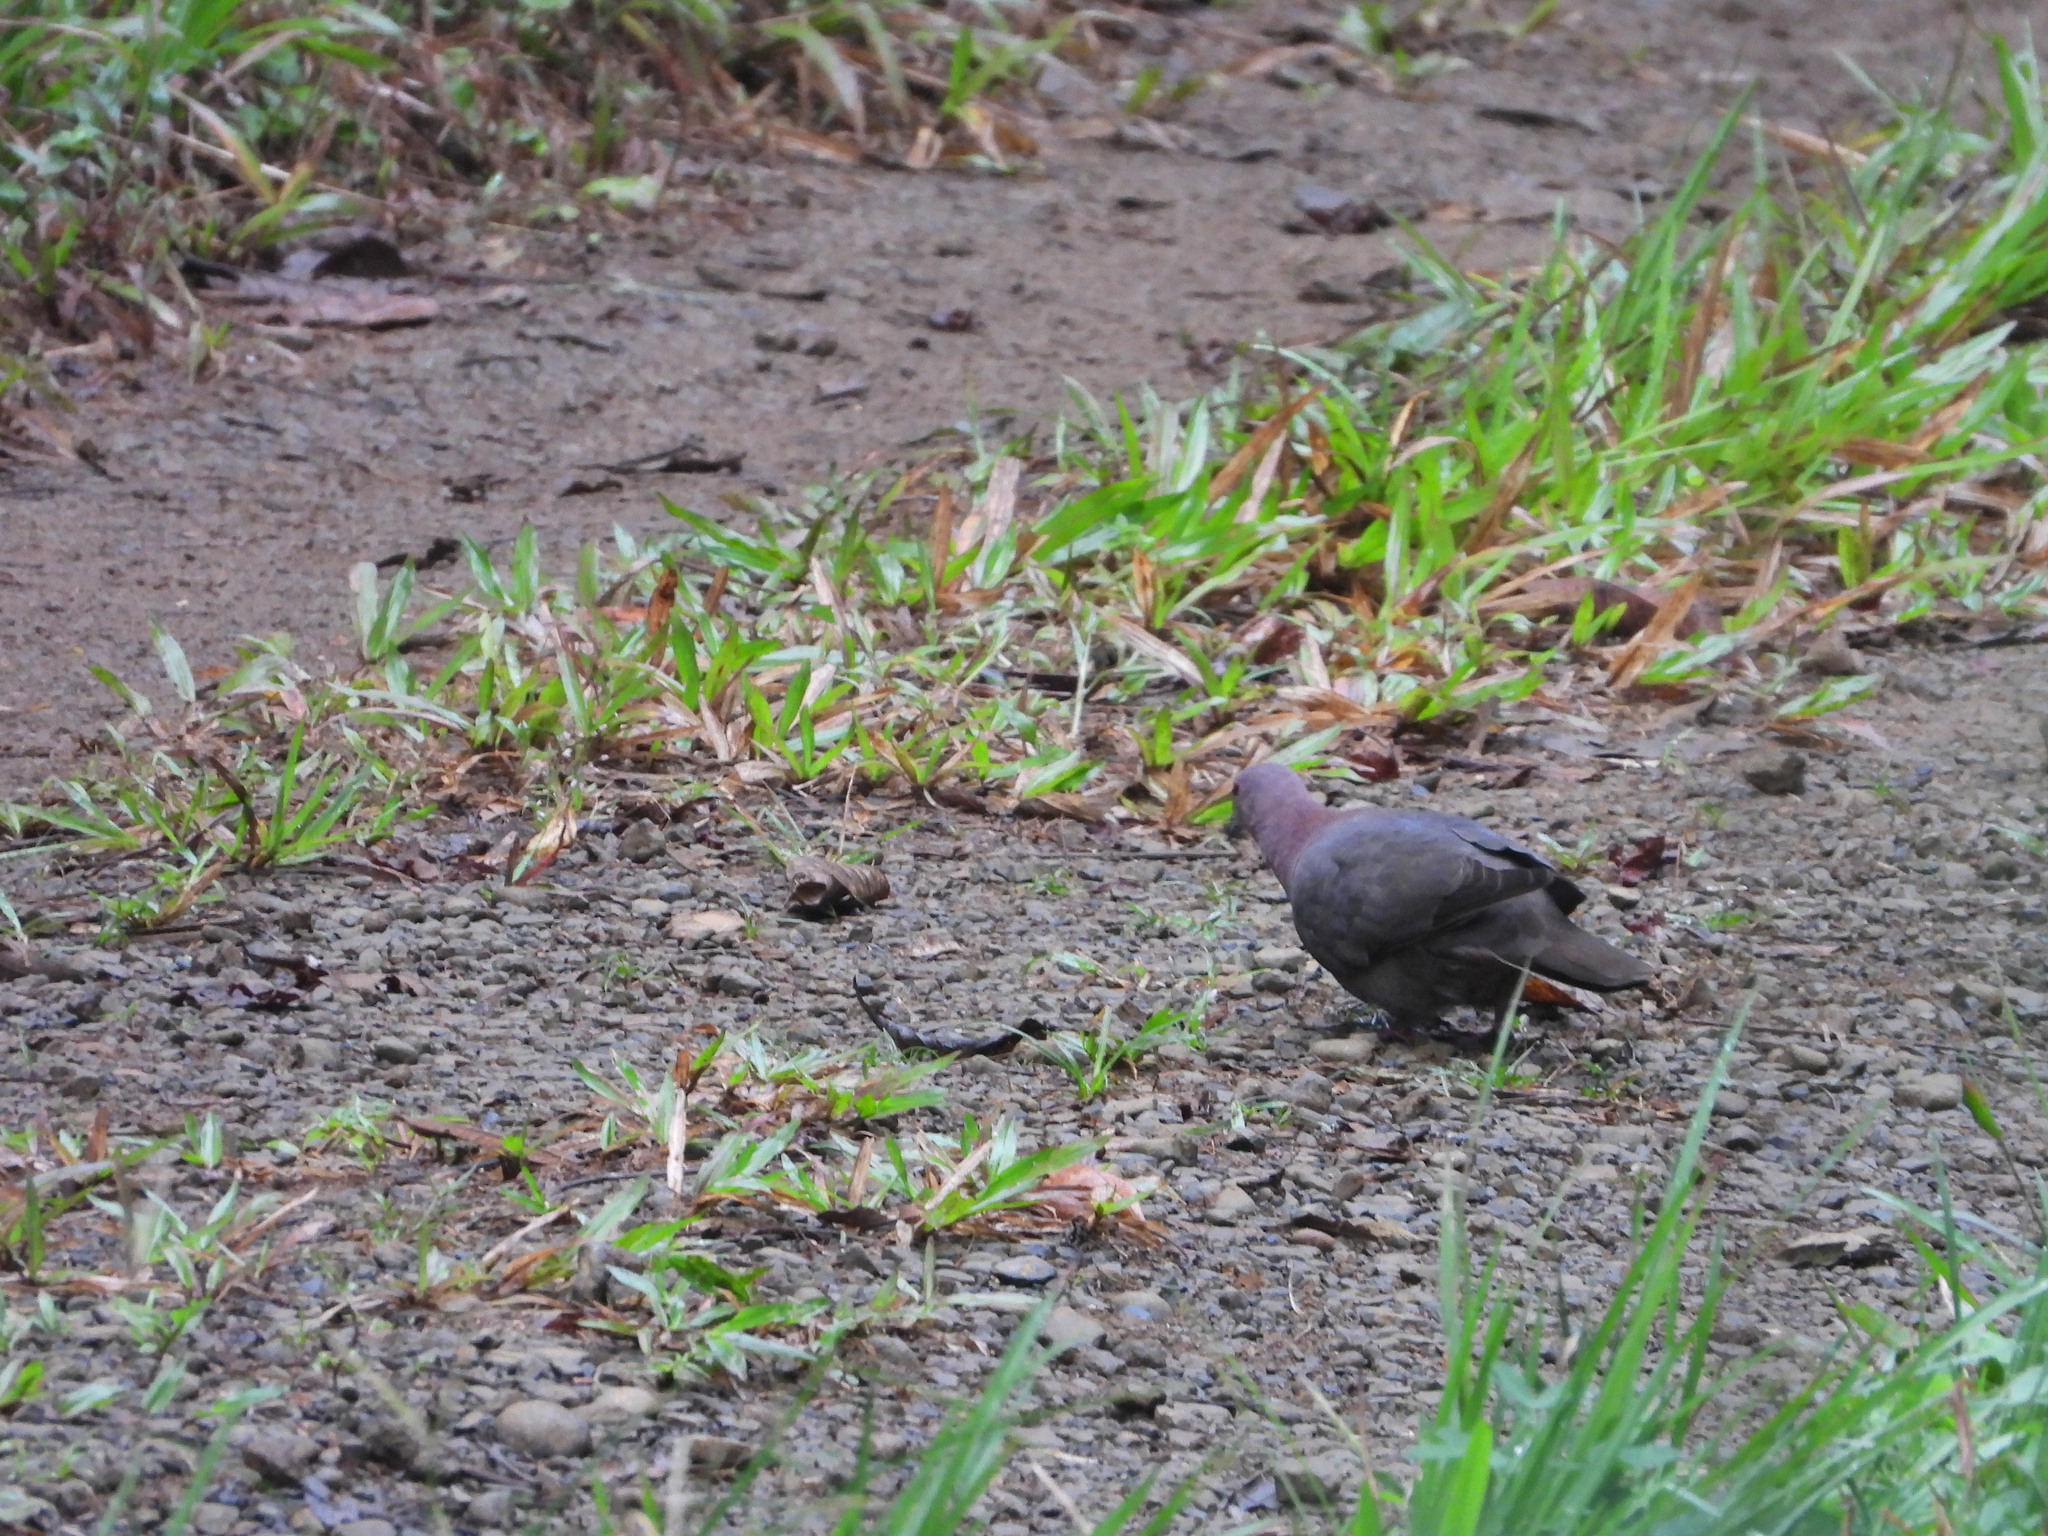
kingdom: Animalia
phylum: Chordata
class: Aves
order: Columbiformes
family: Columbidae
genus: Patagioenas
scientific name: Patagioenas nigrirostris
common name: Short-billed pigeon
